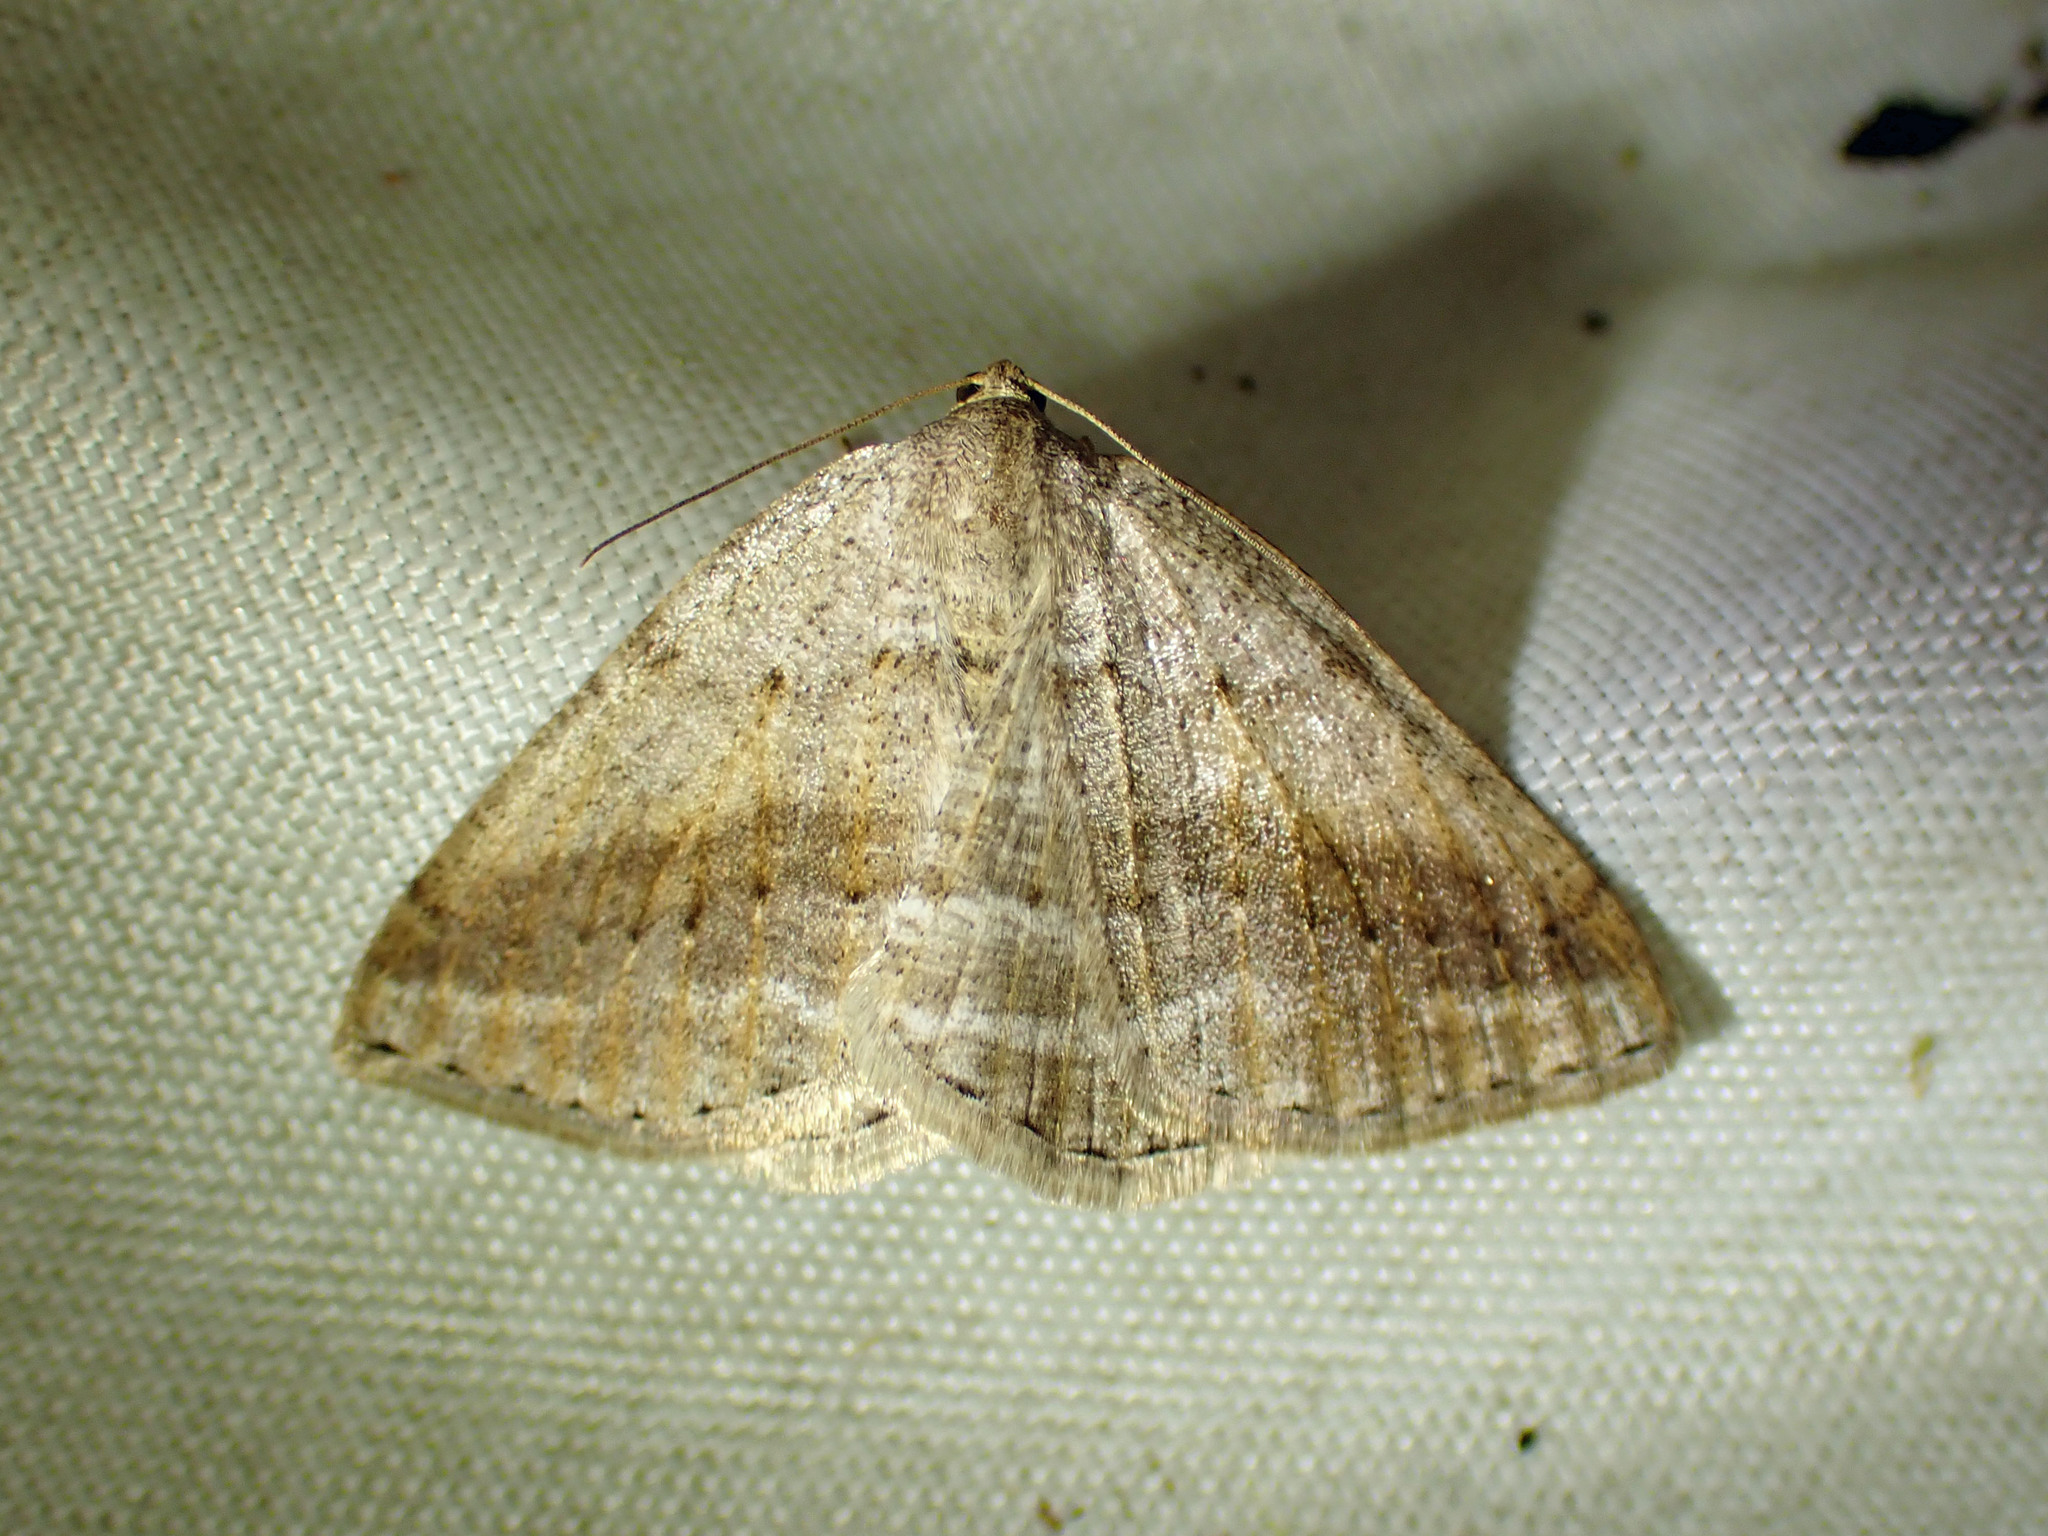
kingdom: Animalia
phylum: Arthropoda
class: Insecta
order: Lepidoptera
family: Geometridae
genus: Tacparia
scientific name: Tacparia detersata
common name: Pale alder moth
